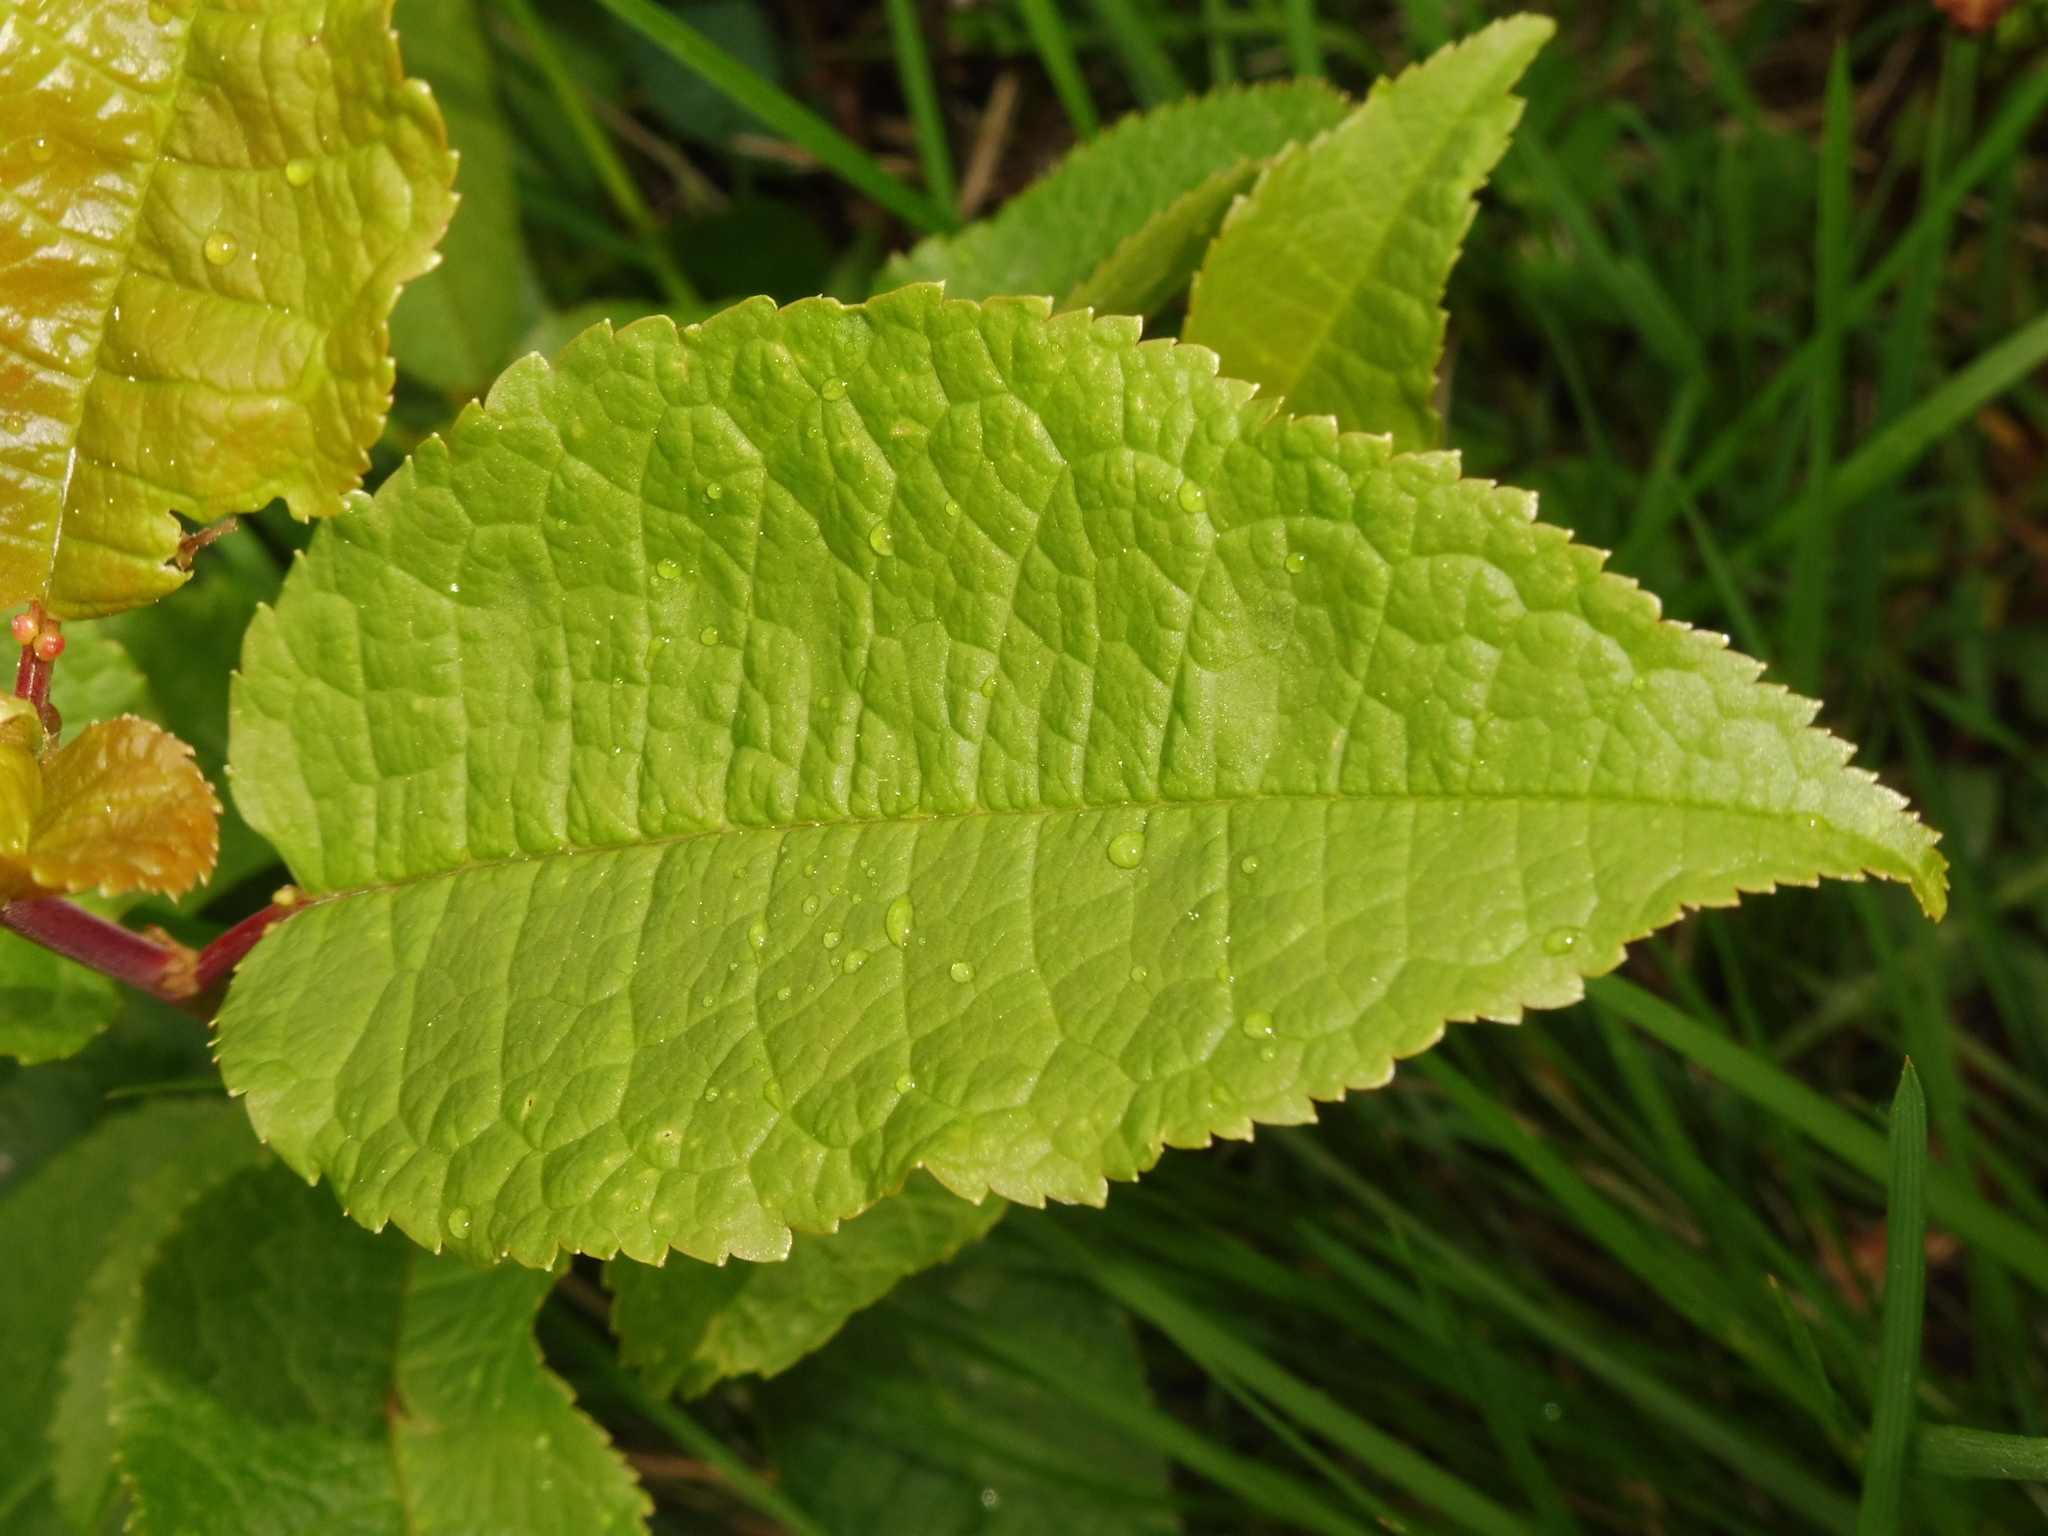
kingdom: Plantae
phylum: Tracheophyta
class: Magnoliopsida
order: Rosales
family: Rosaceae
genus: Prunus
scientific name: Prunus padus
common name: Bird cherry
